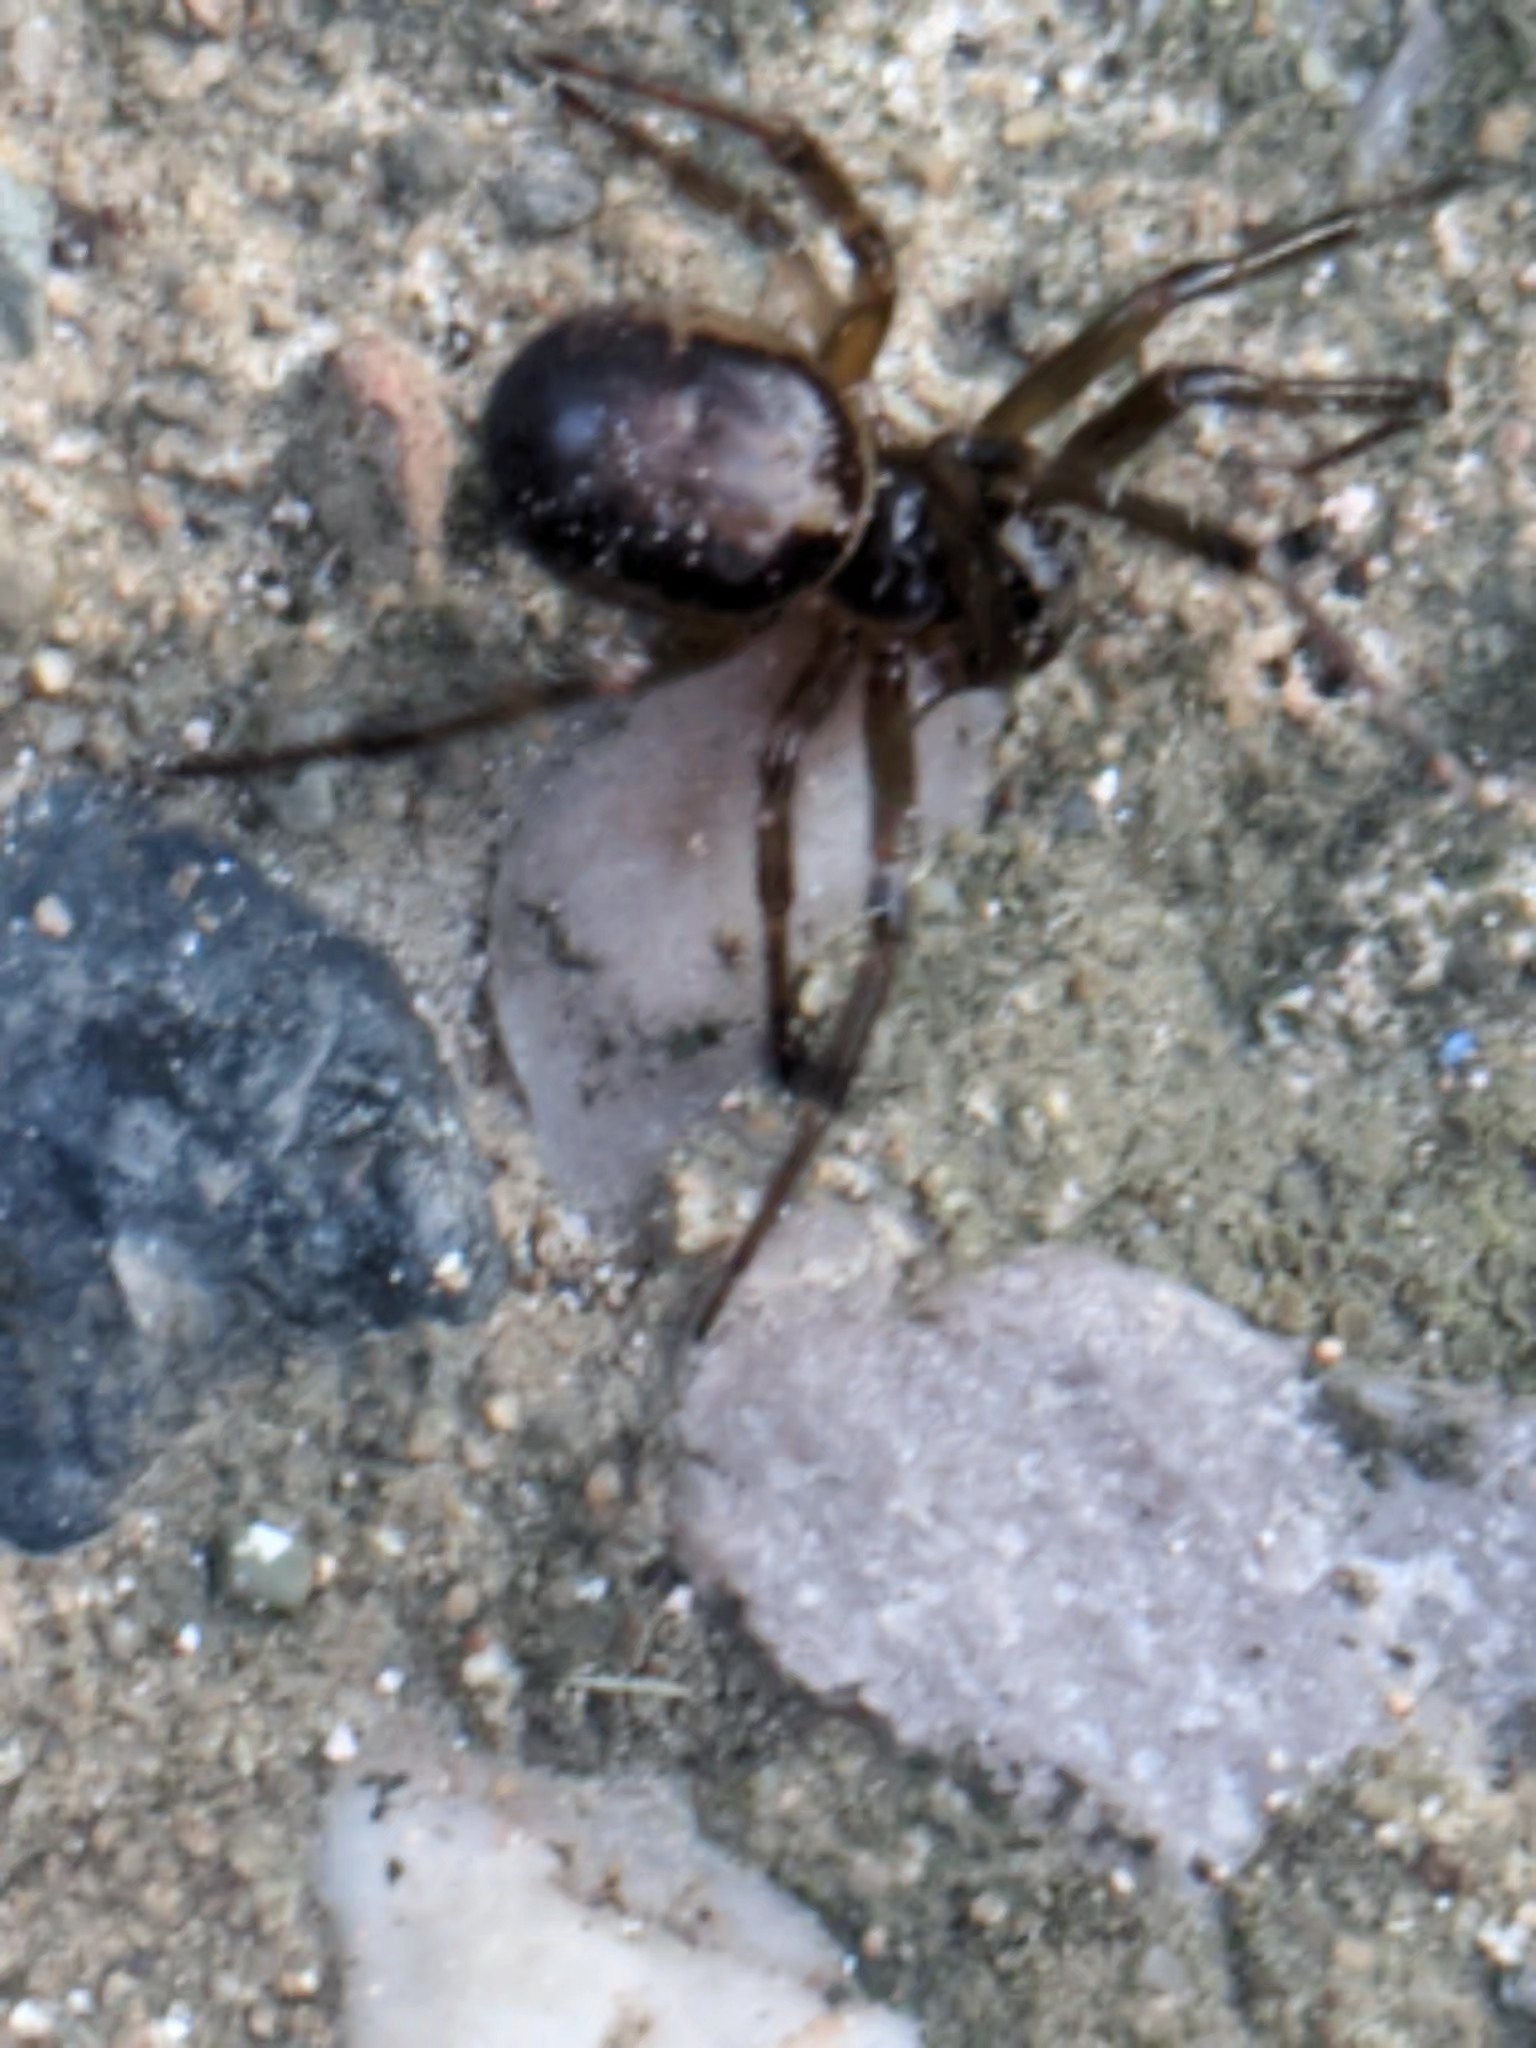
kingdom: Animalia
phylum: Arthropoda
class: Arachnida
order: Araneae
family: Theridiidae
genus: Steatoda
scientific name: Steatoda nobilis
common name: Cobweb weaver
